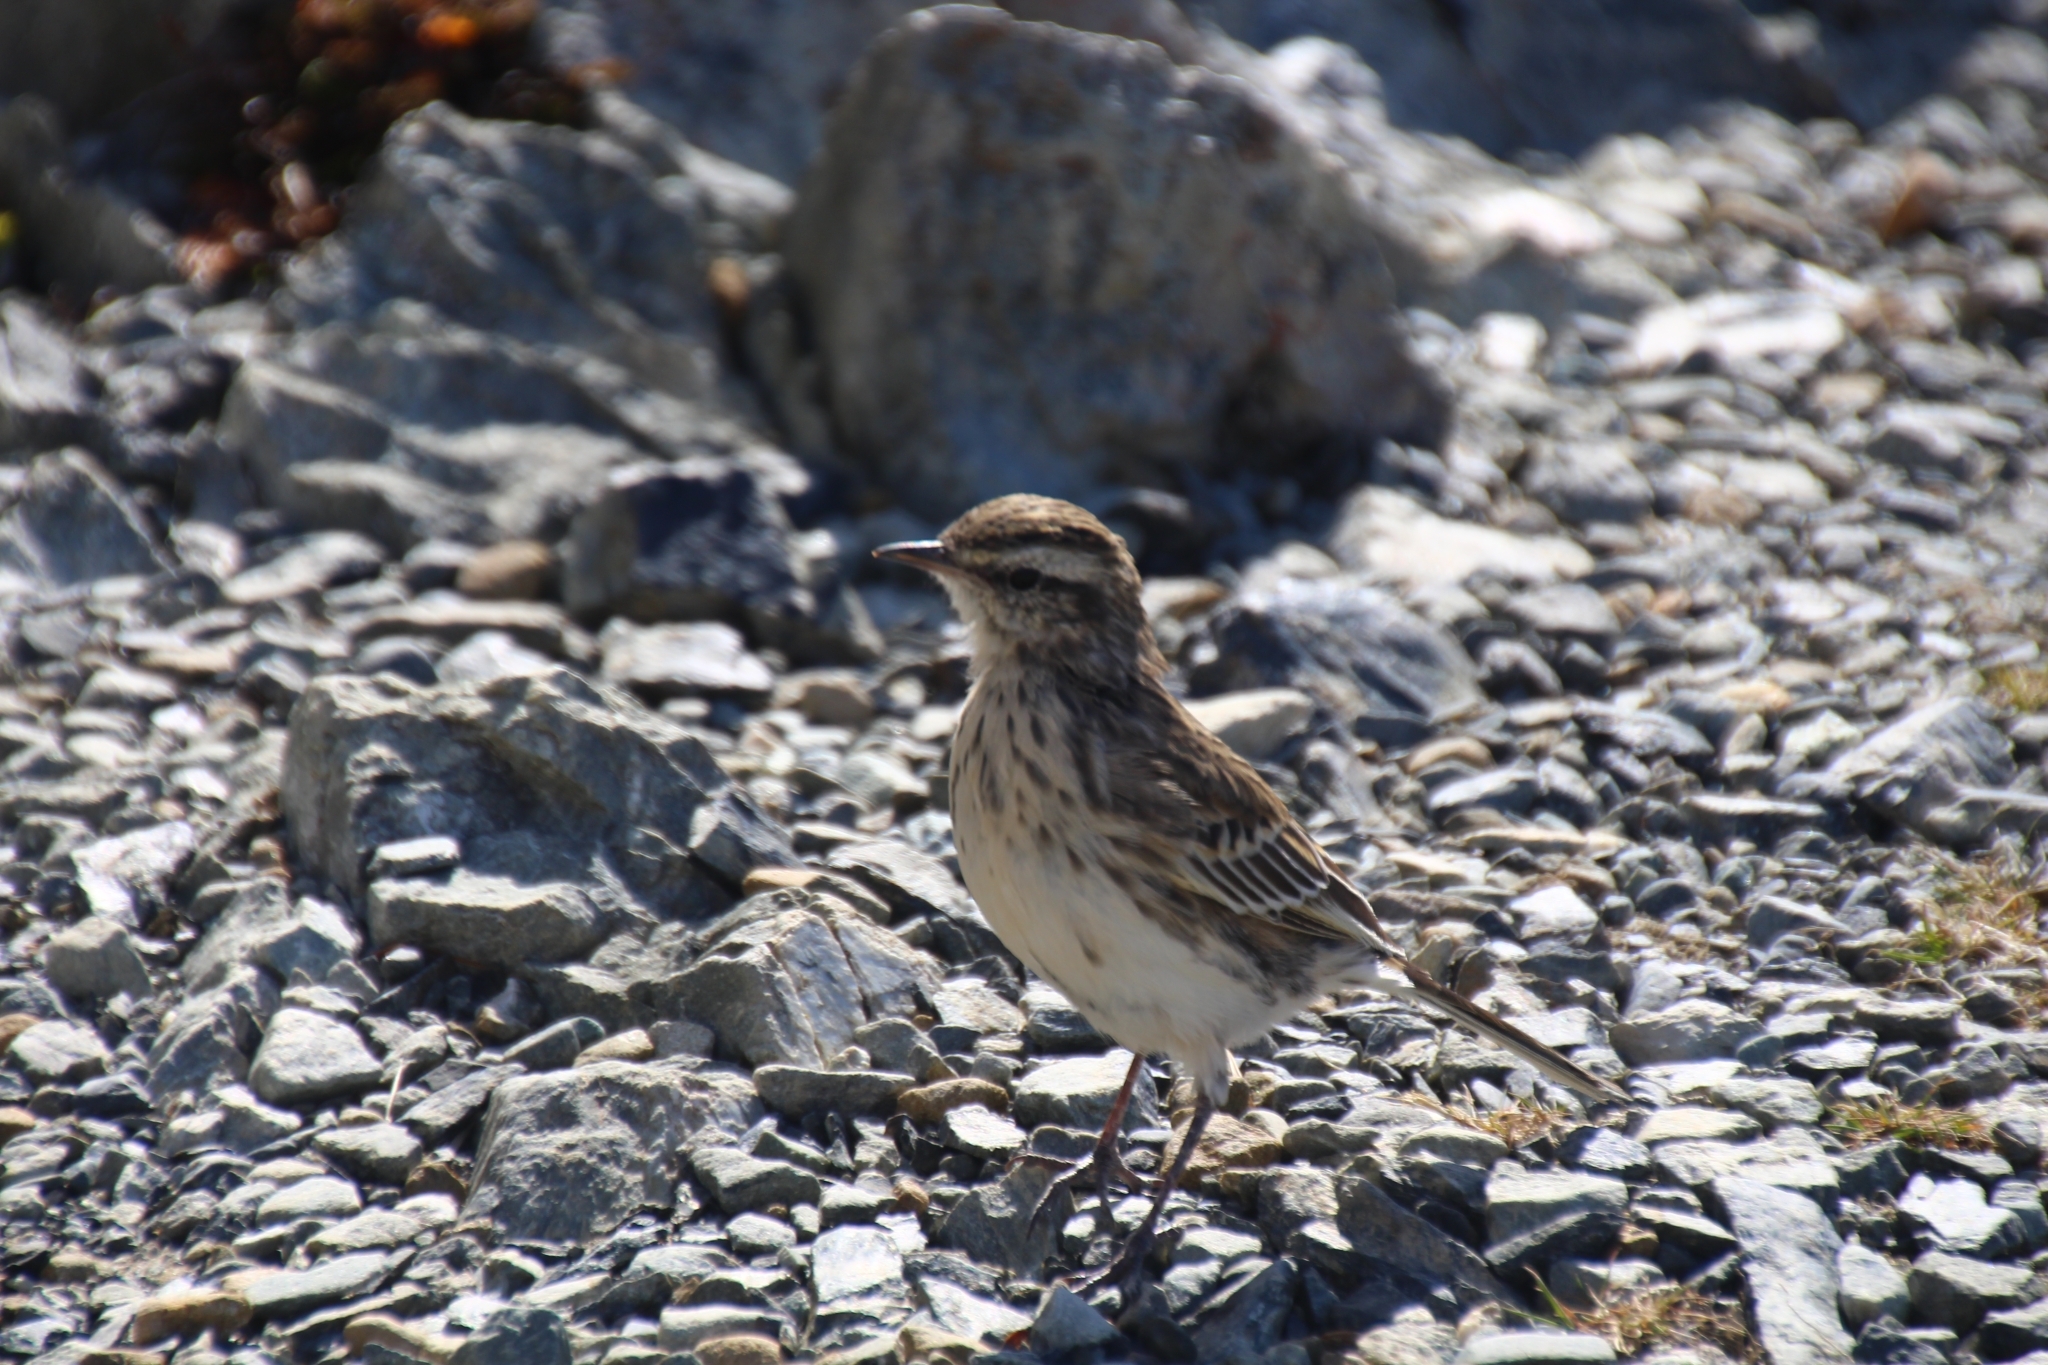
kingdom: Animalia
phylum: Chordata
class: Aves
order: Passeriformes
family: Motacillidae
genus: Anthus
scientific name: Anthus novaeseelandiae
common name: New zealand pipit
